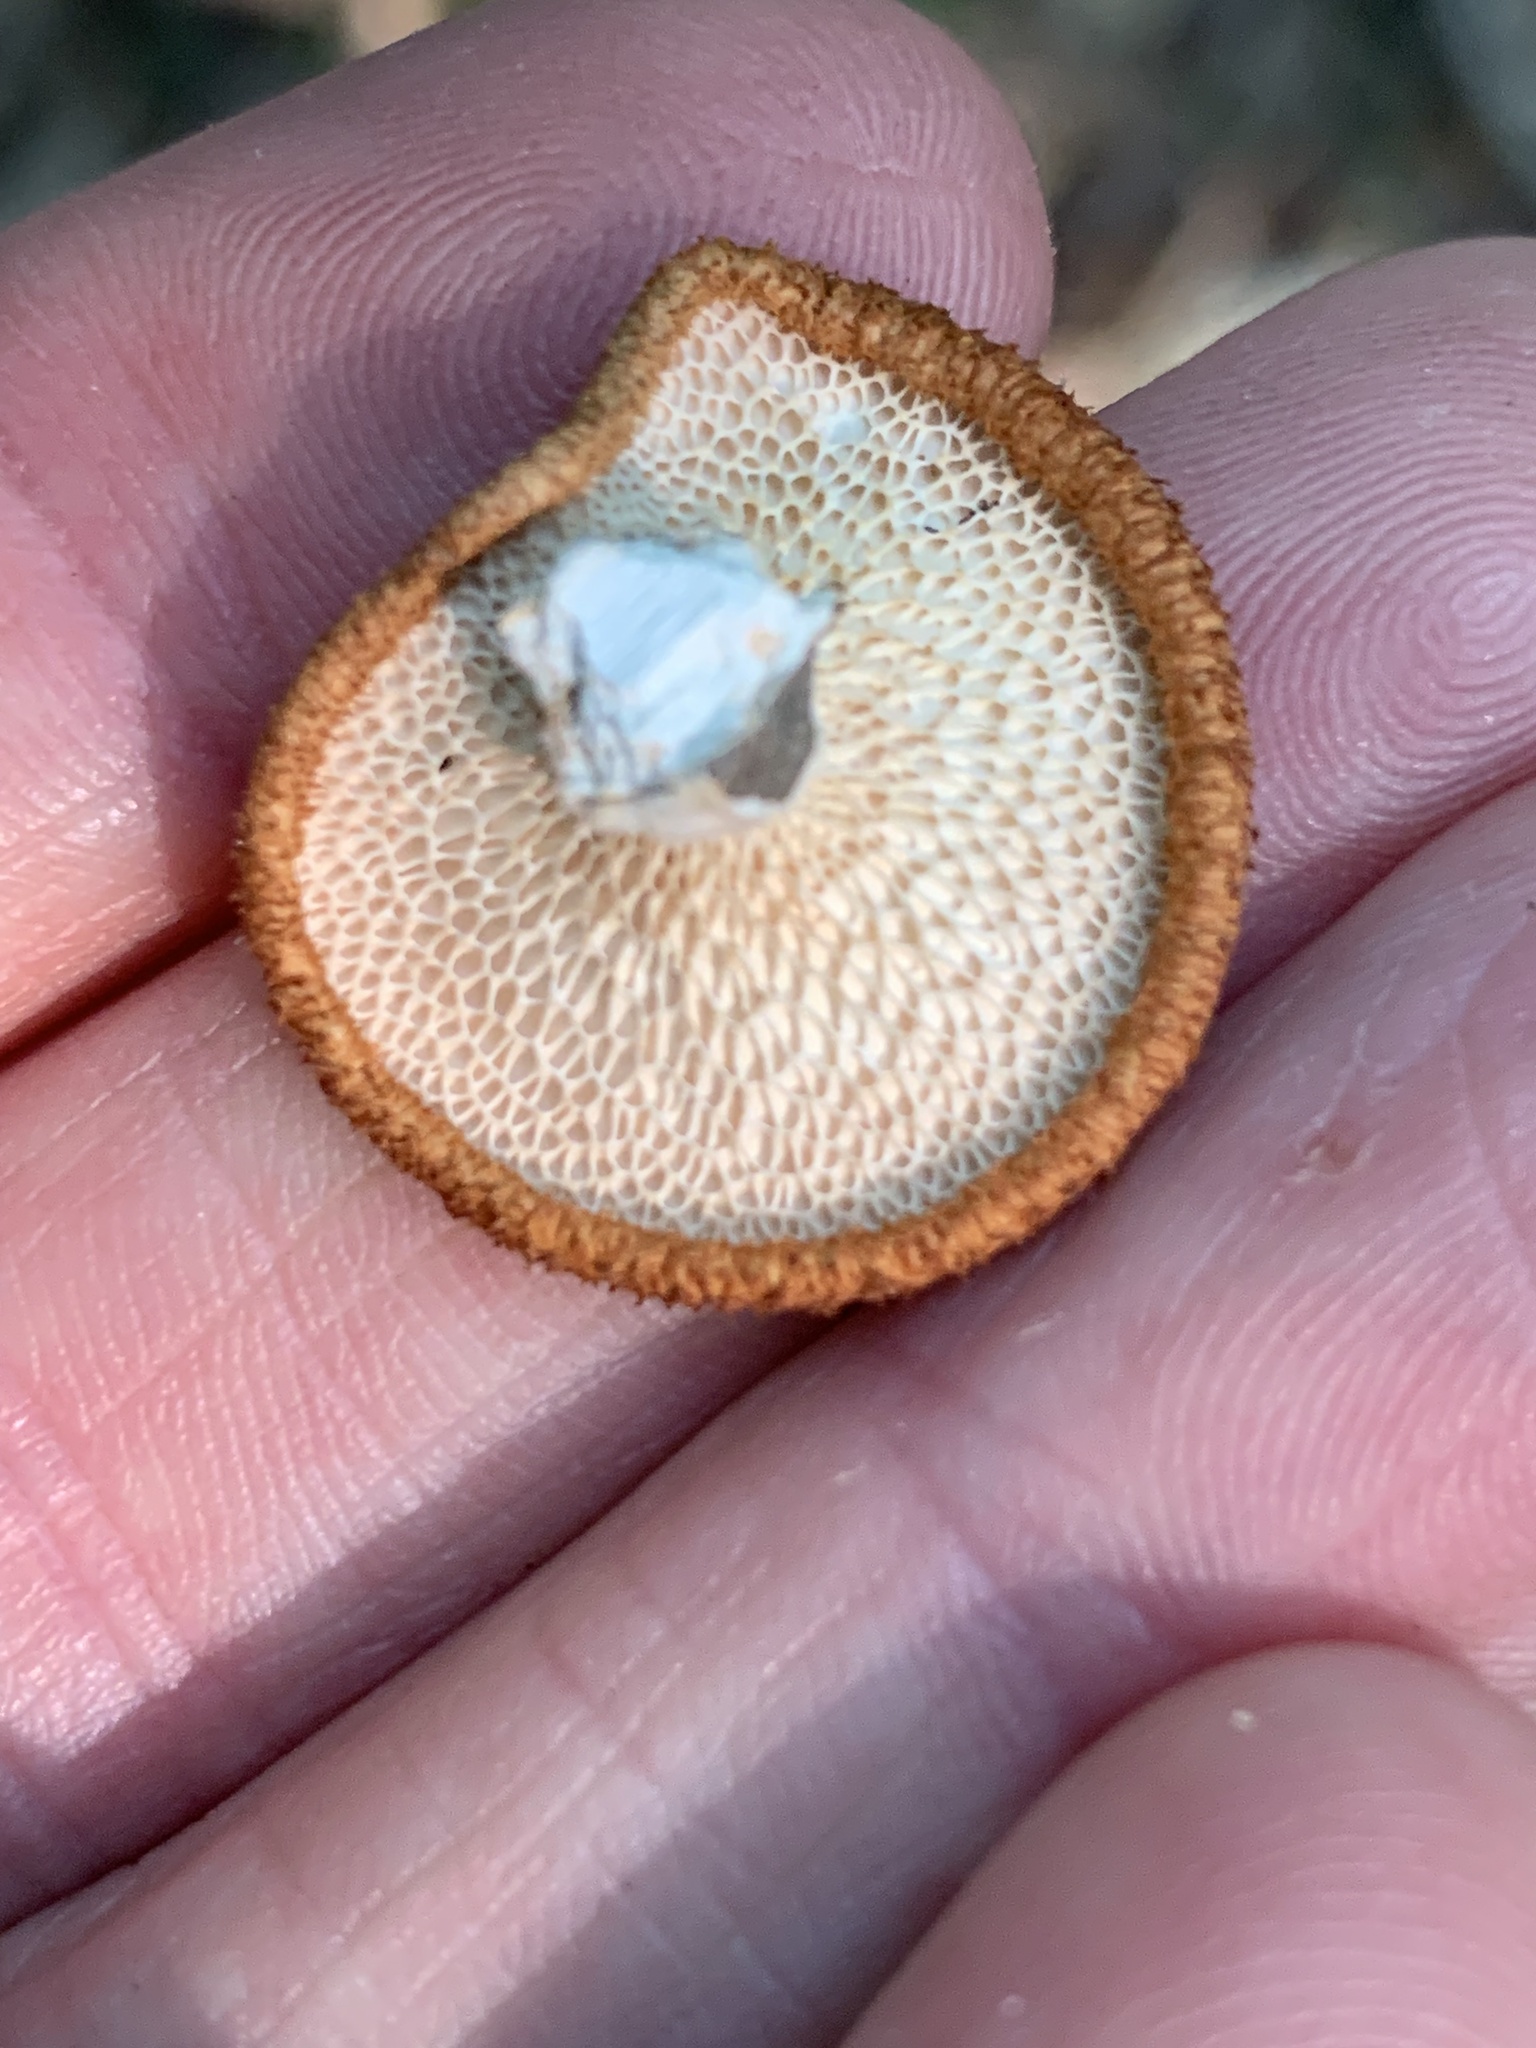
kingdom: Fungi
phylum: Basidiomycota
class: Agaricomycetes
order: Polyporales
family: Polyporaceae
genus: Neofavolus
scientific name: Neofavolus alveolaris
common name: Hexagonal-pored polypore
